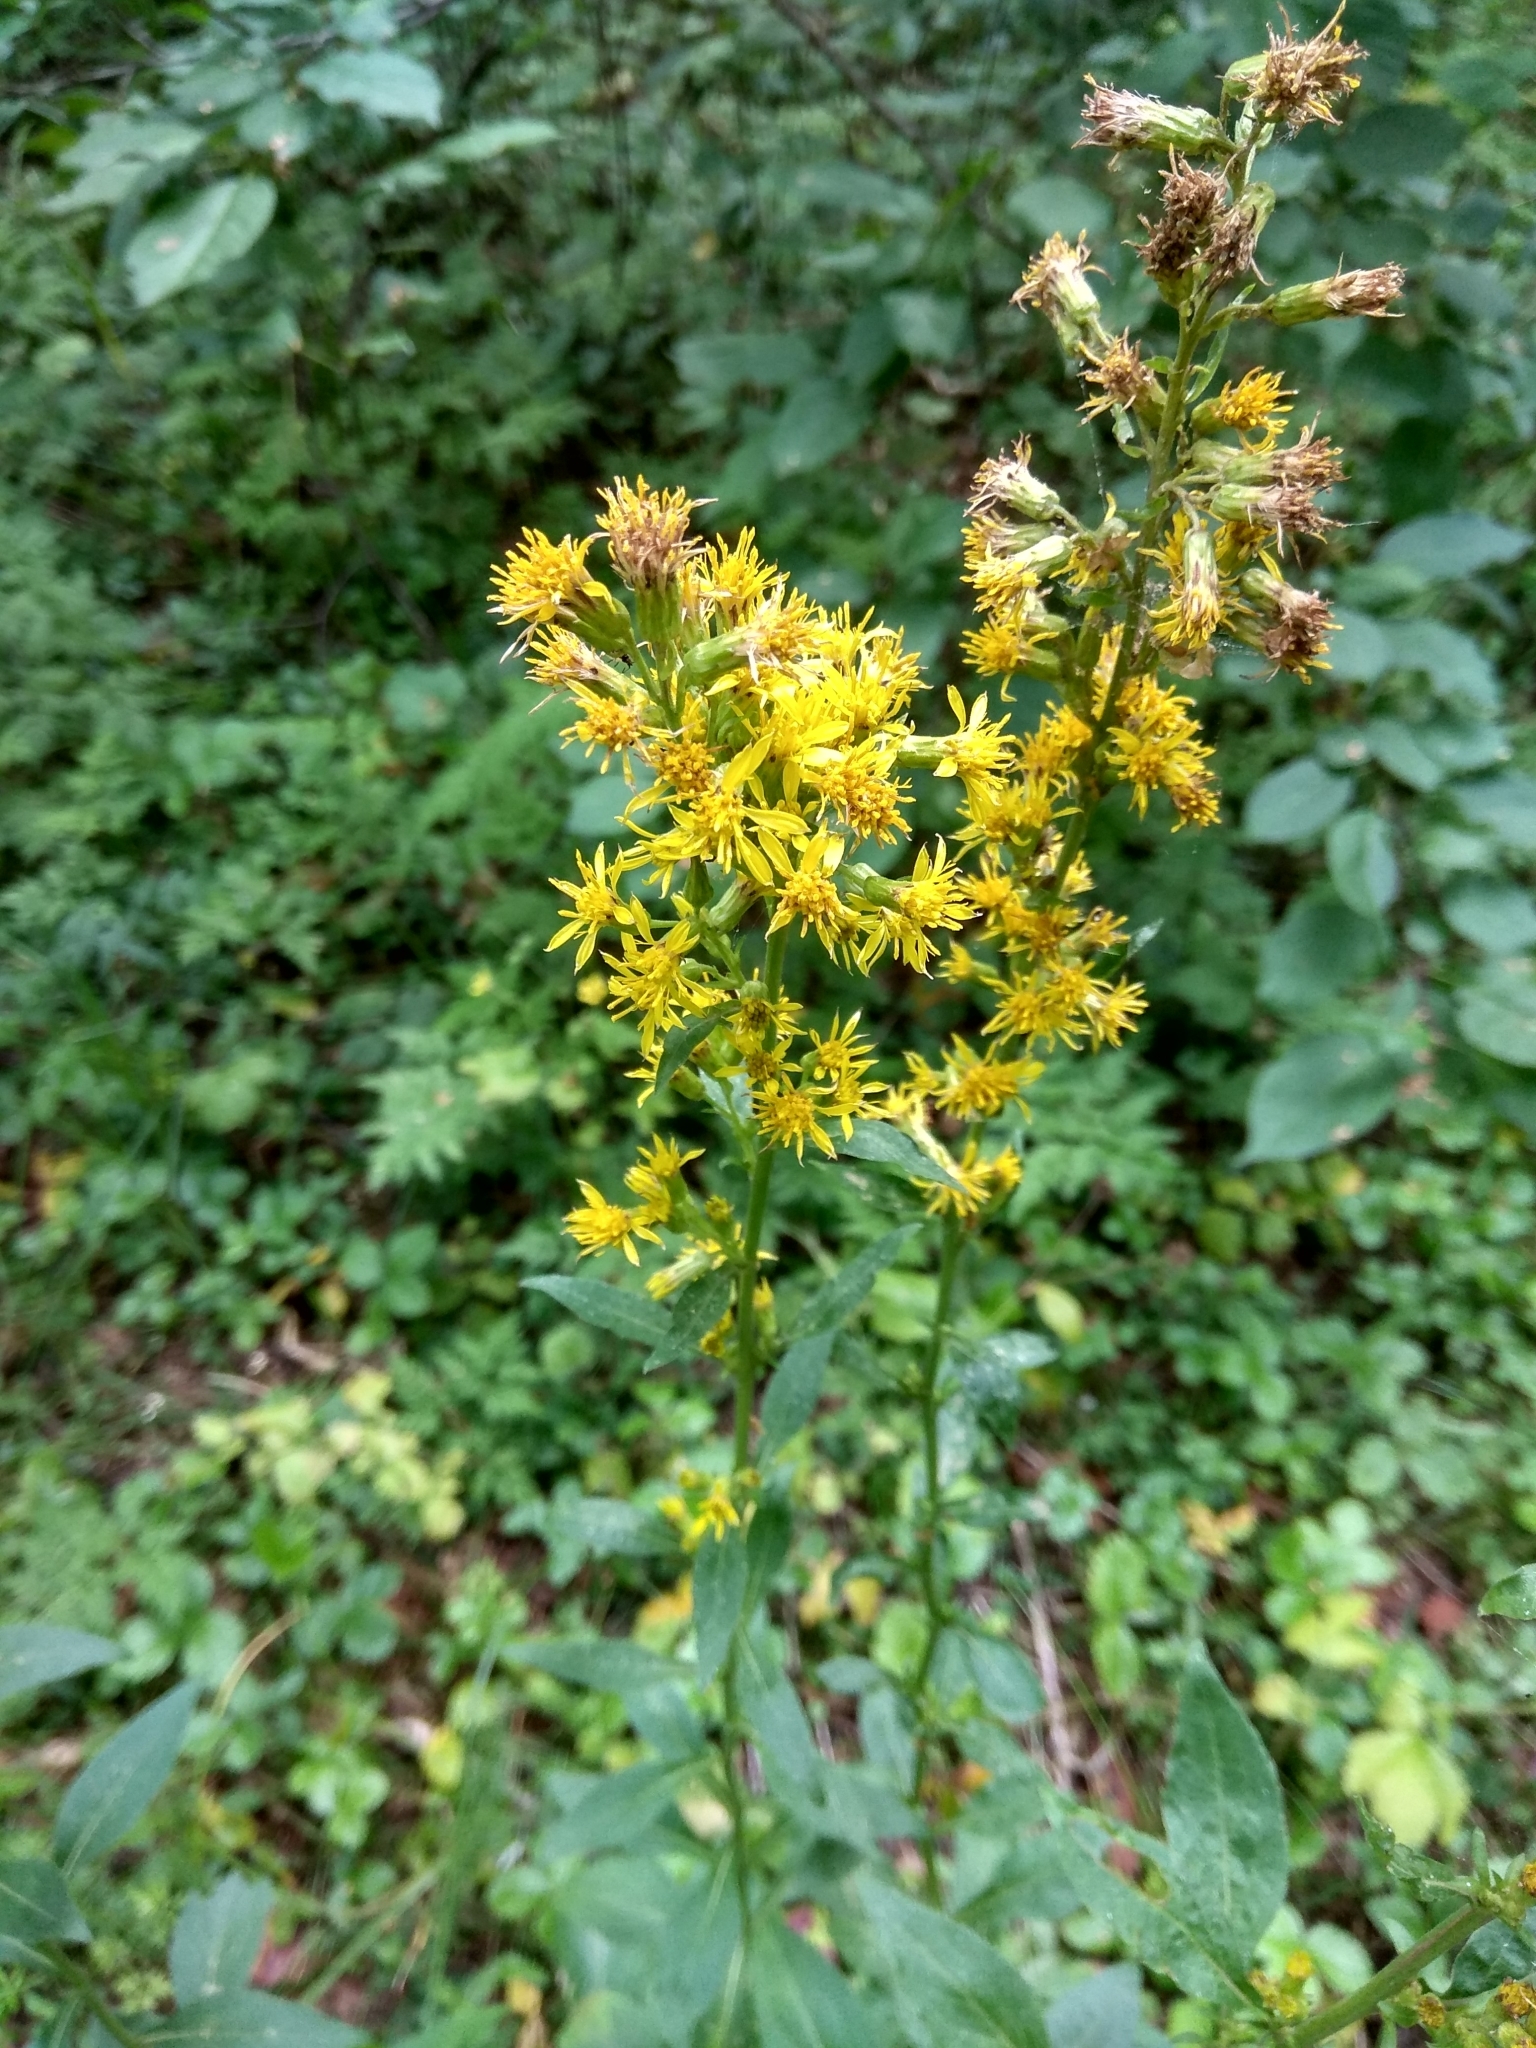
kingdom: Plantae
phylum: Tracheophyta
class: Magnoliopsida
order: Asterales
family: Asteraceae
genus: Solidago
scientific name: Solidago virgaurea
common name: Goldenrod
